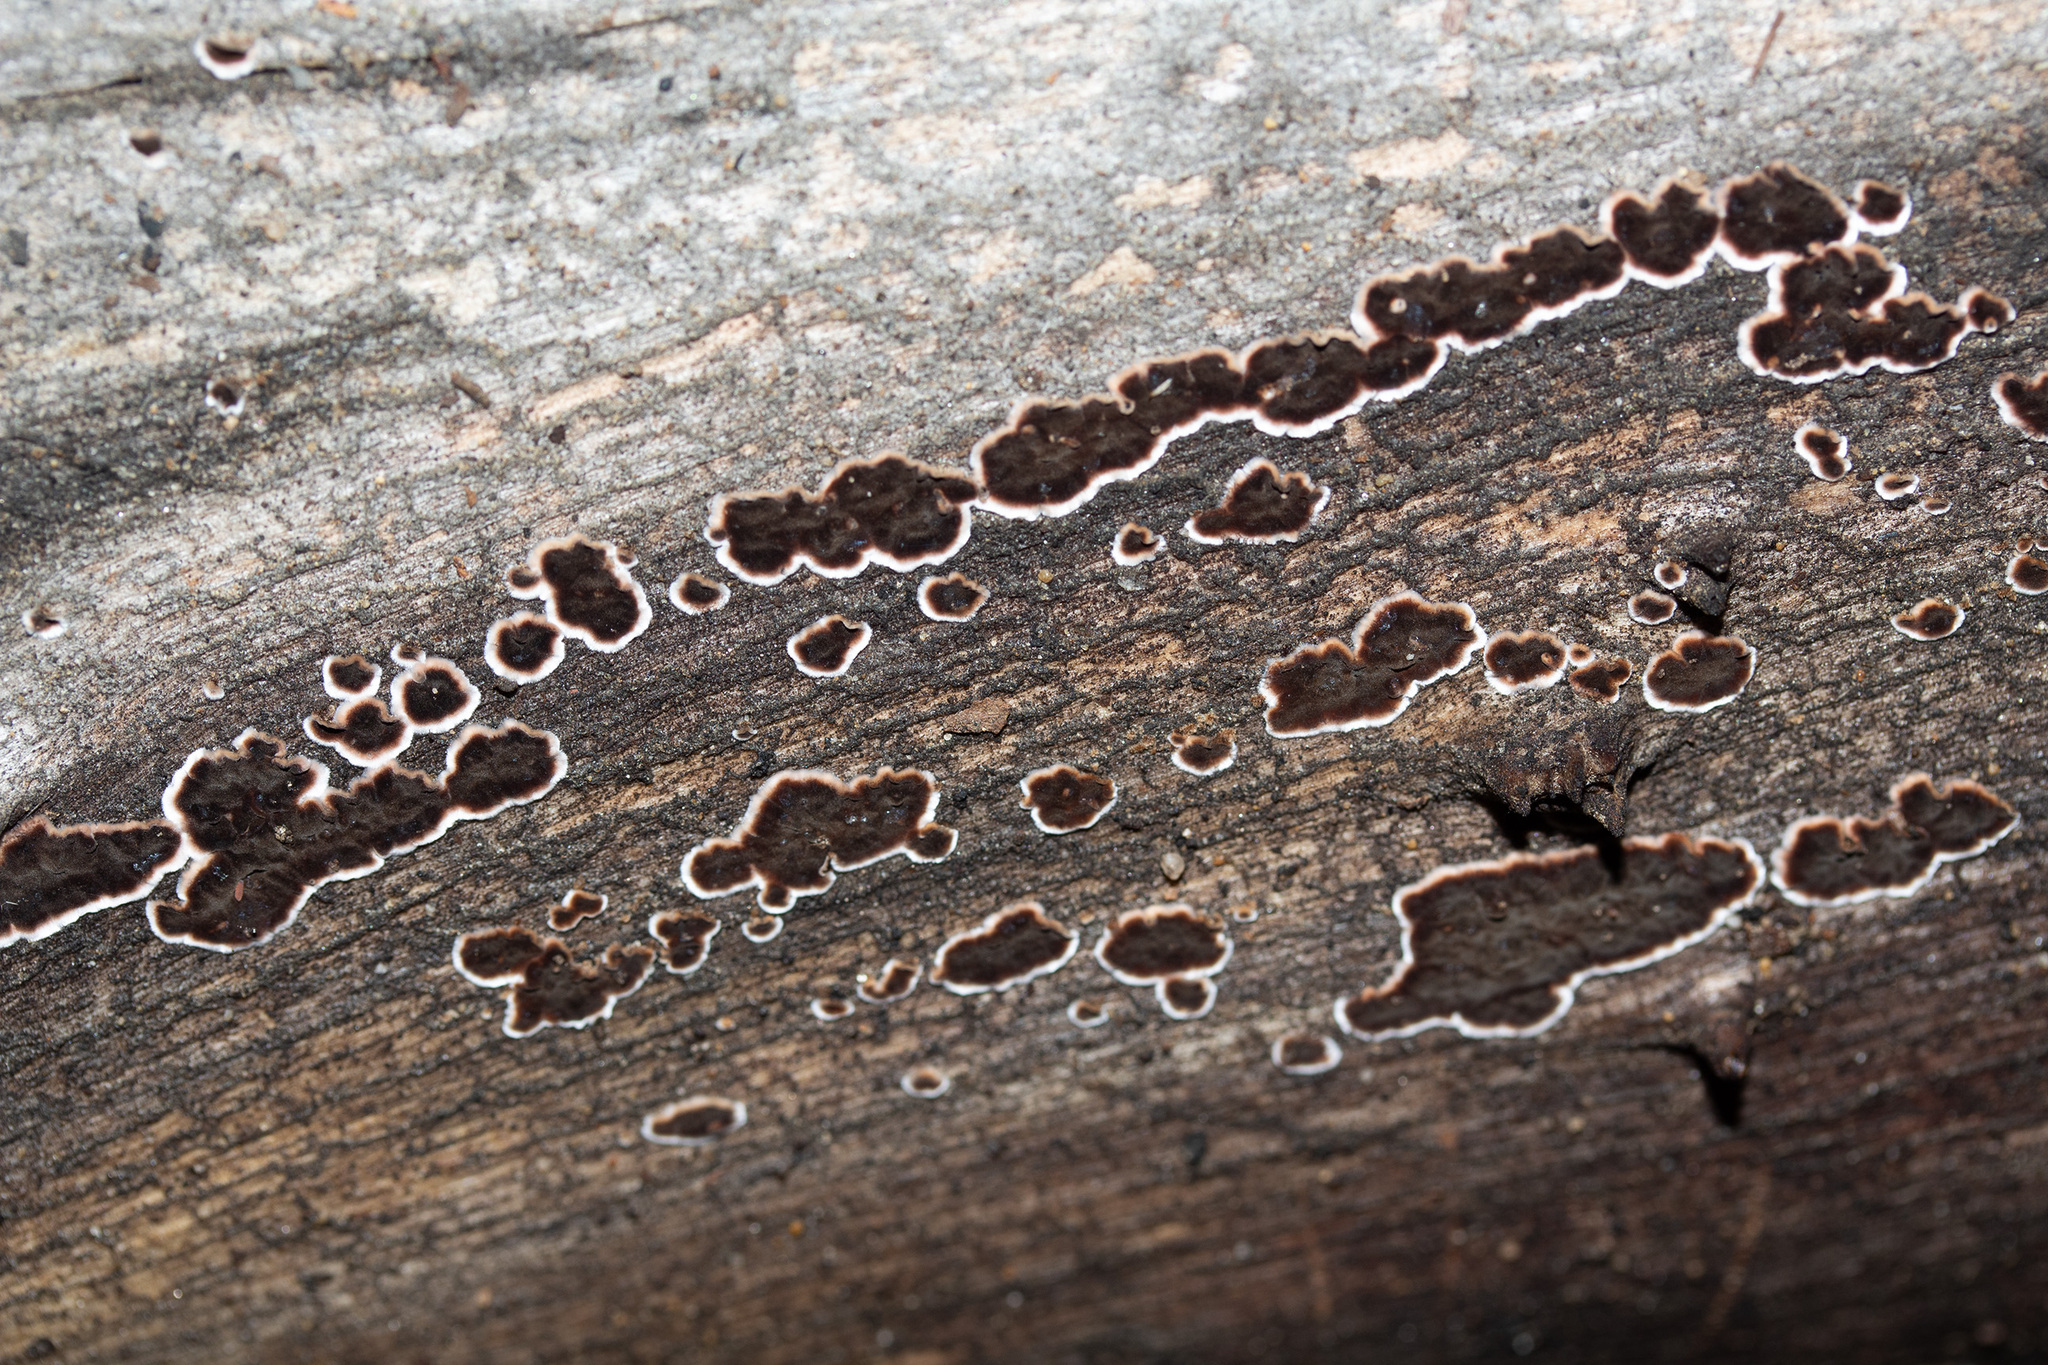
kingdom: Fungi
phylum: Basidiomycota
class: Agaricomycetes
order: Russulales
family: Peniophoraceae
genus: Peniophora
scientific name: Peniophora albobadia
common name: Giraffe spots
